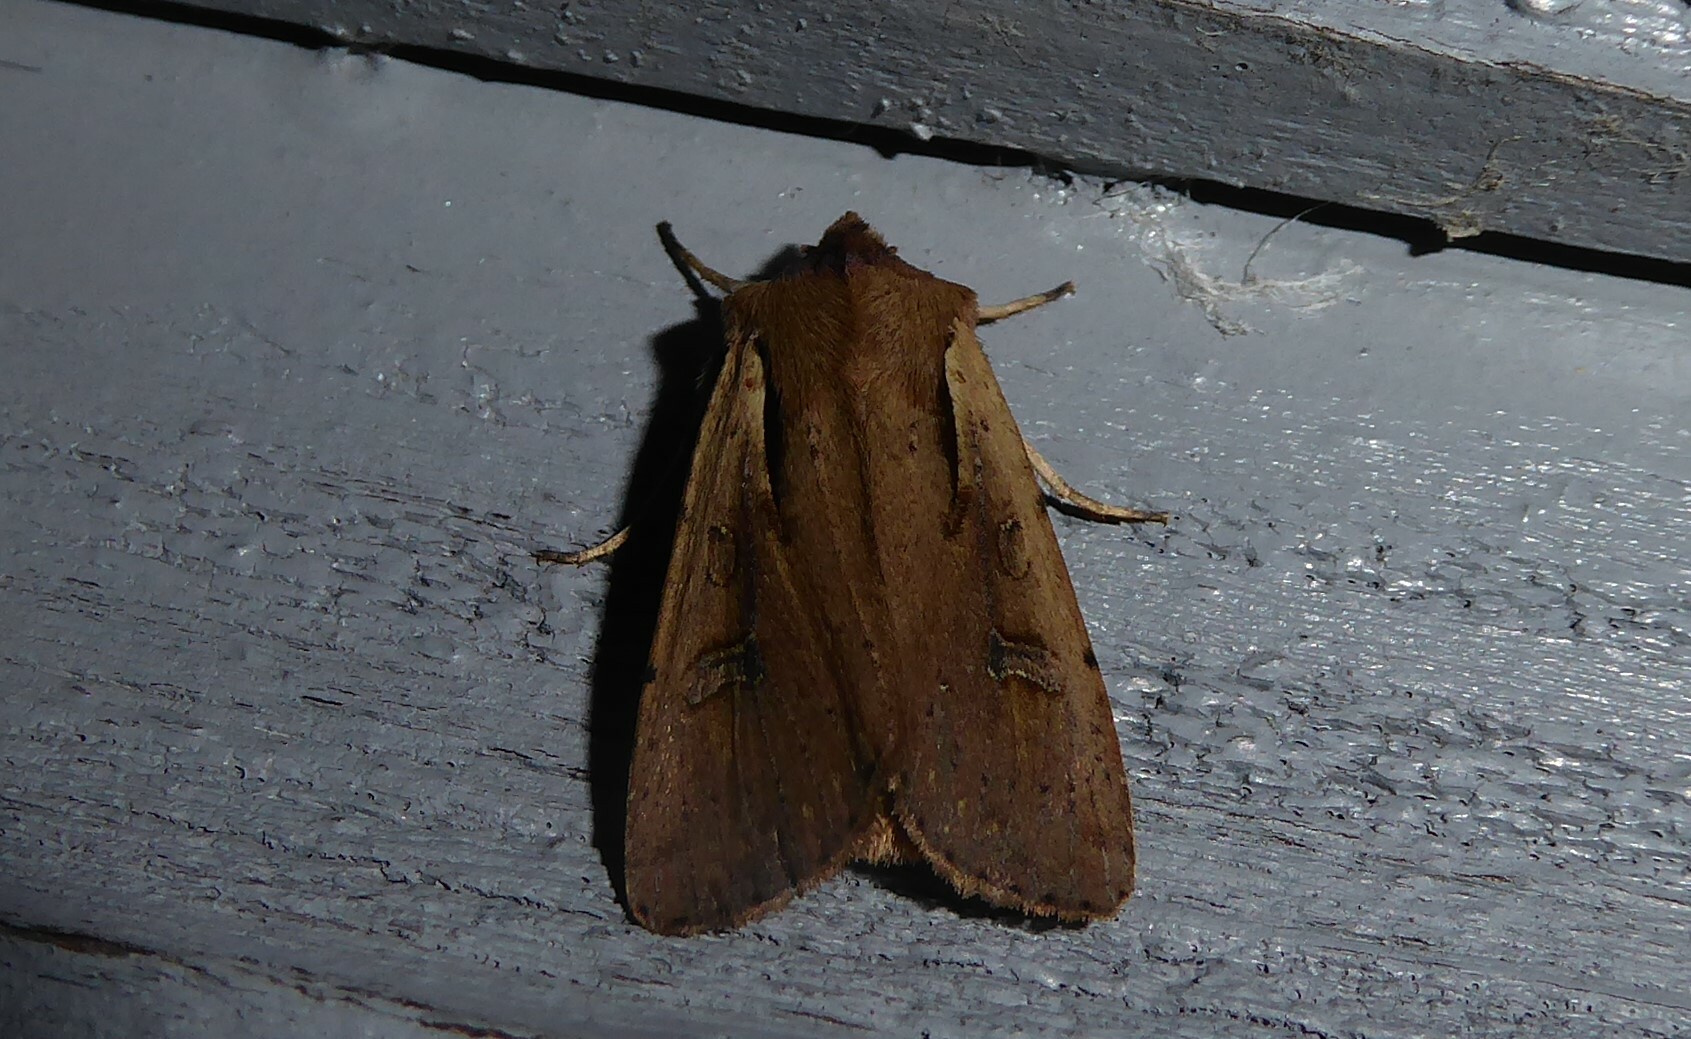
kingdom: Animalia
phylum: Arthropoda
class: Insecta
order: Lepidoptera
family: Noctuidae
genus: Ichneutica
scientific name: Ichneutica atristriga
